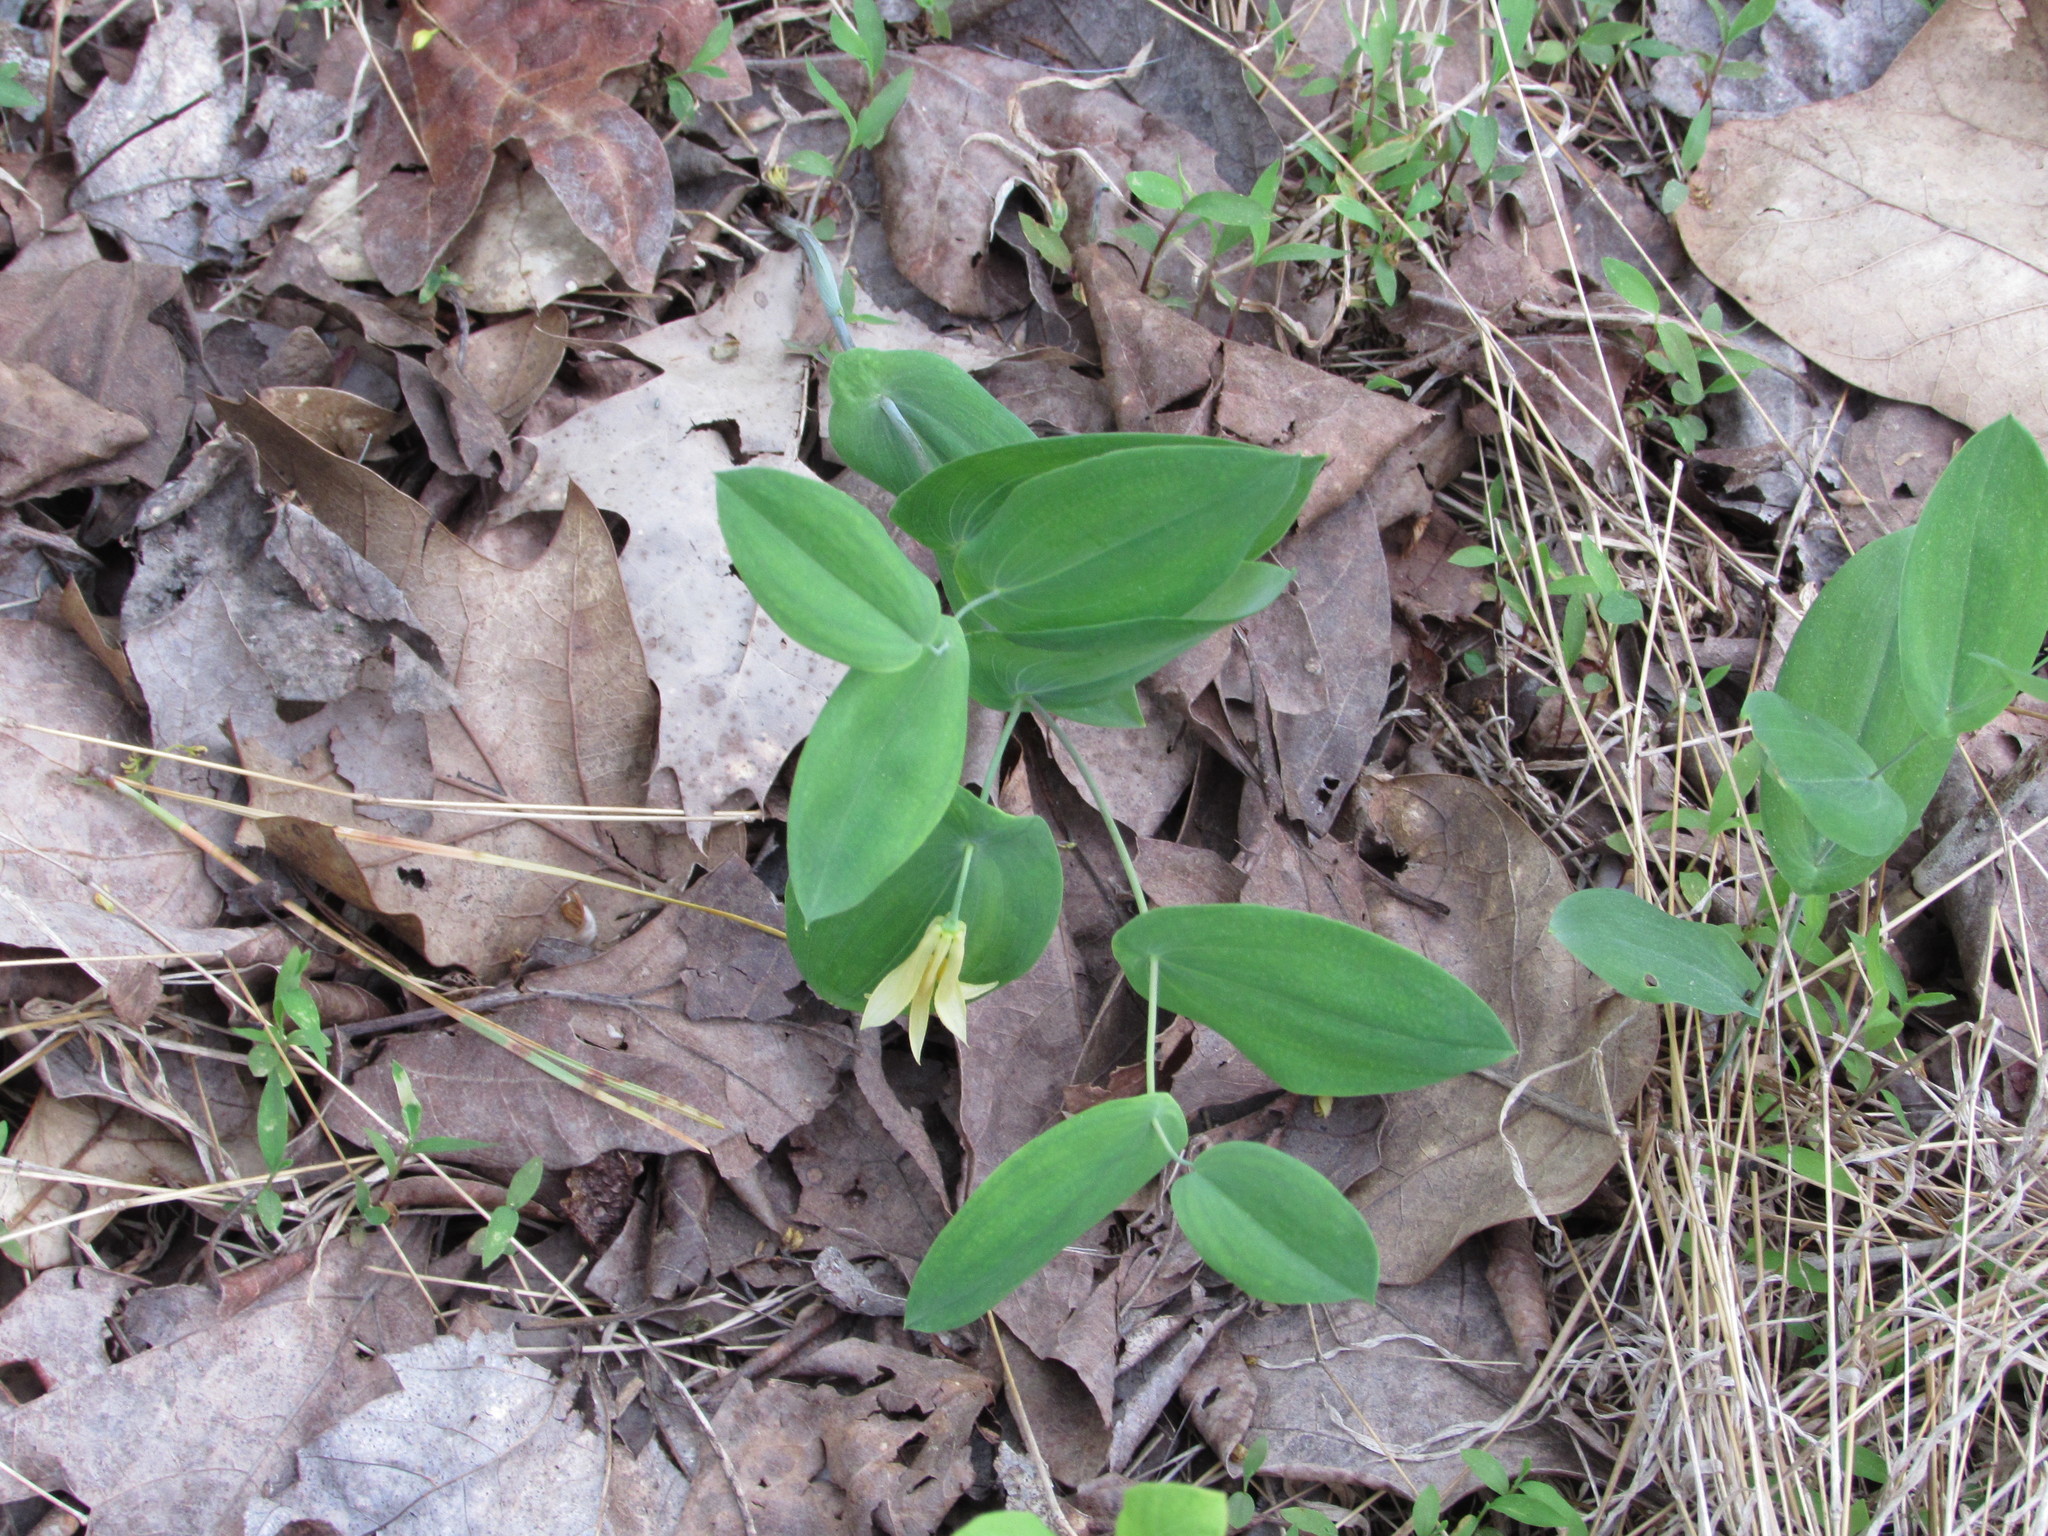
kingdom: Plantae
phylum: Tracheophyta
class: Liliopsida
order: Liliales
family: Colchicaceae
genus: Uvularia
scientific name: Uvularia perfoliata
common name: Perfoliate bellwort
